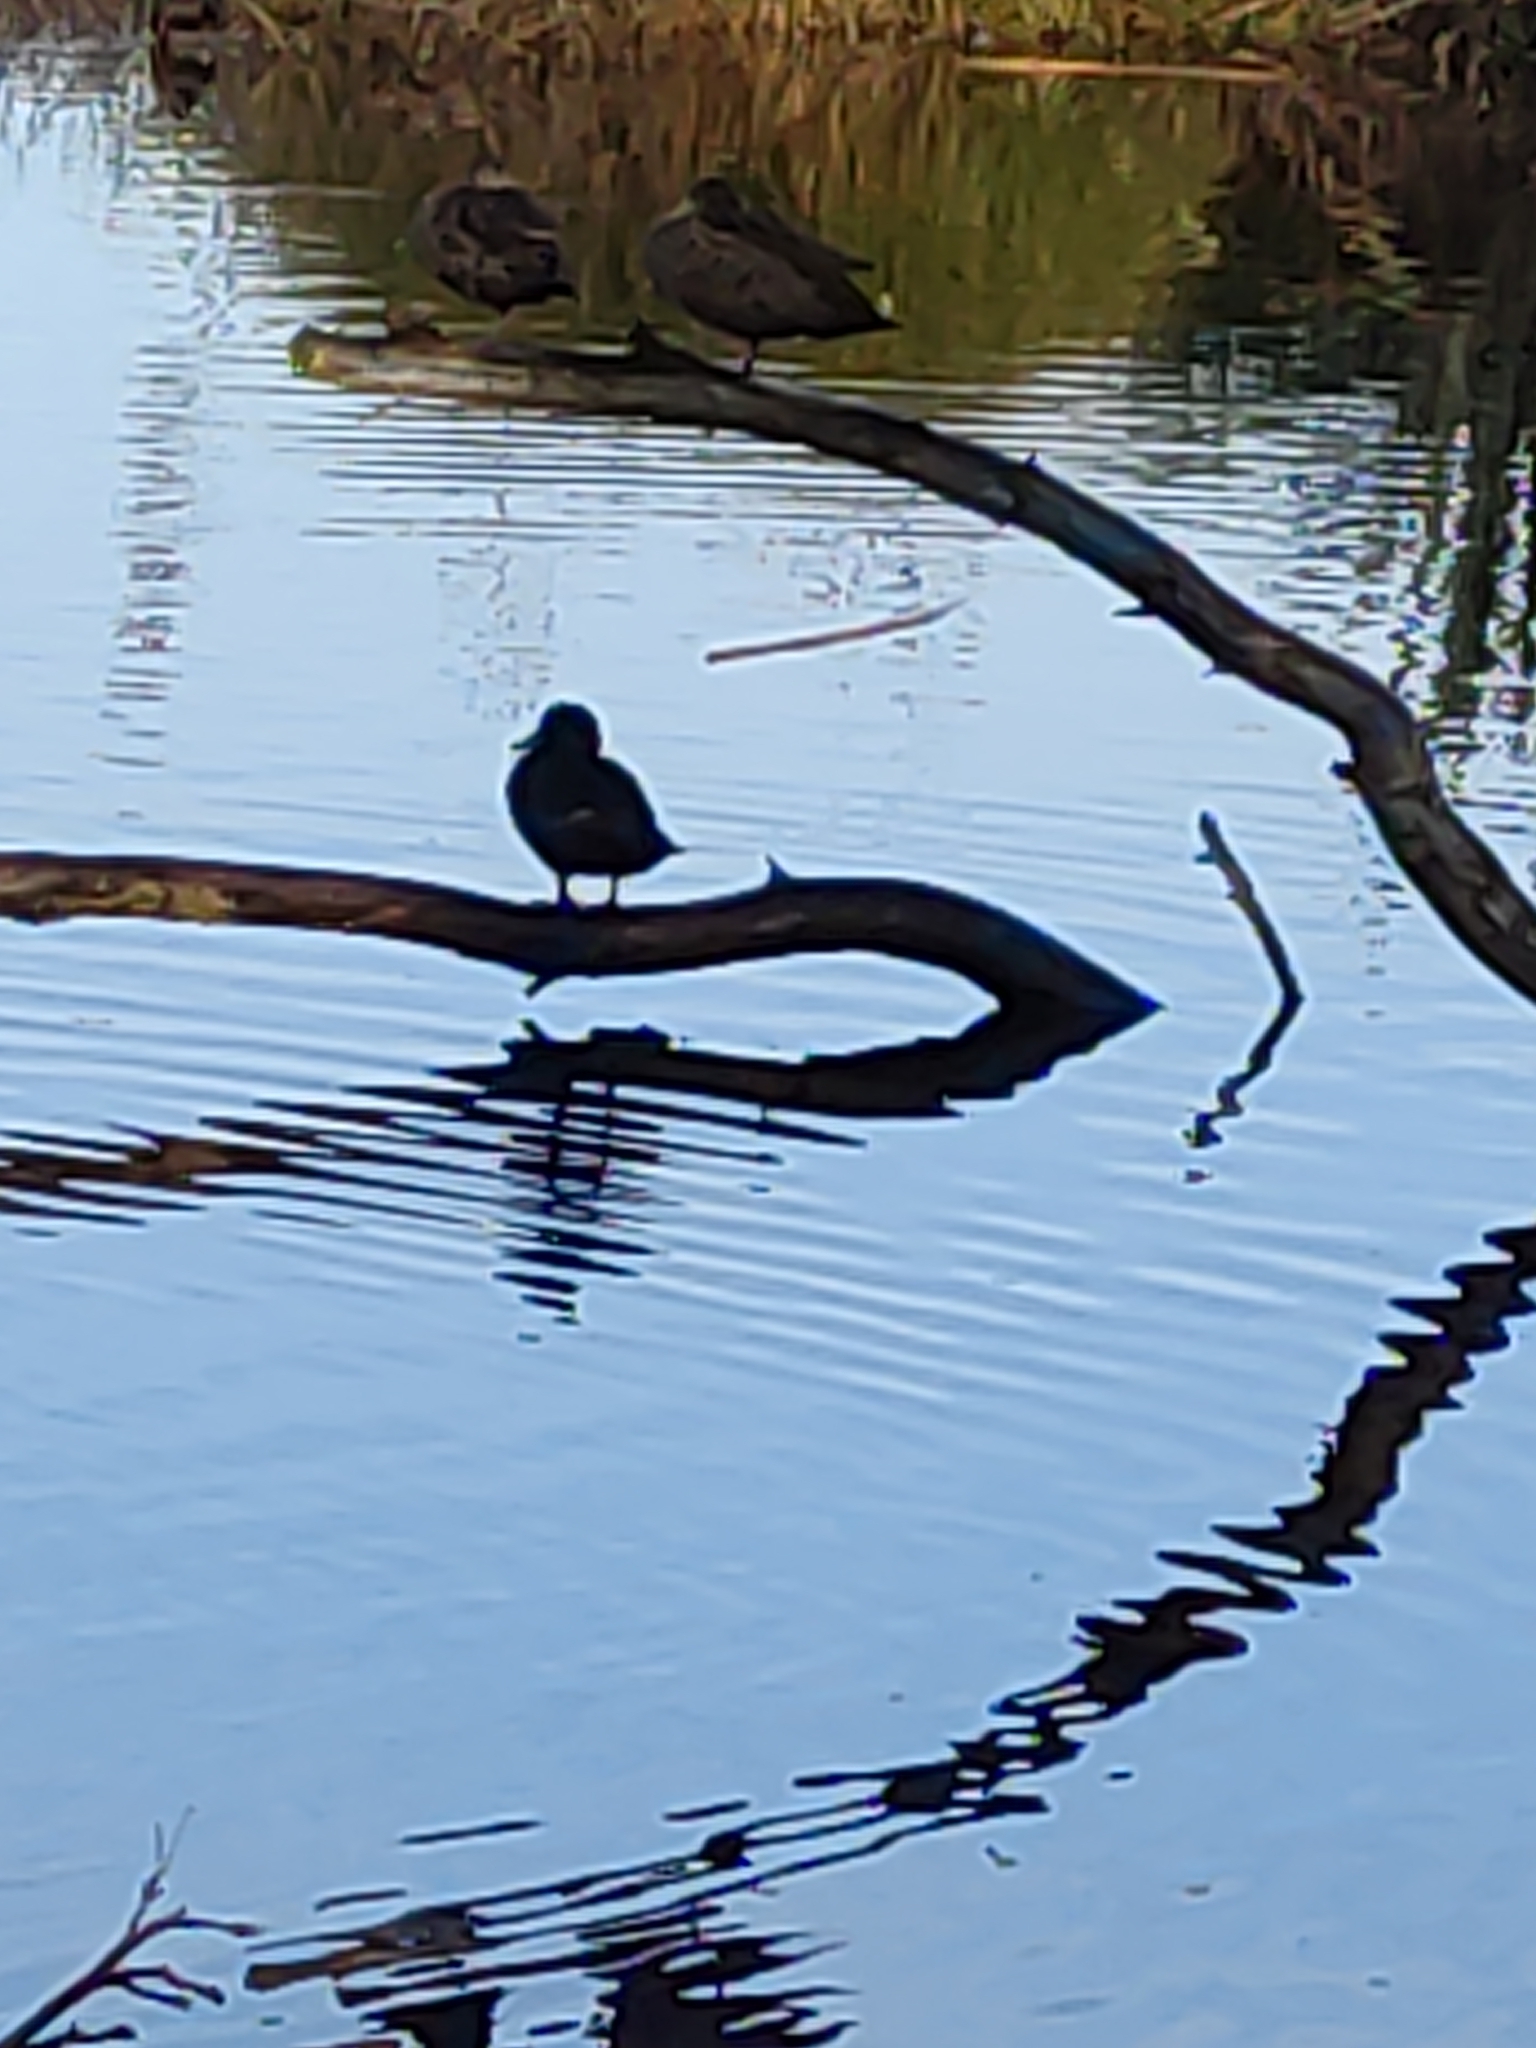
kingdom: Animalia
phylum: Chordata
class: Aves
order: Anseriformes
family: Anatidae
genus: Anas
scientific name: Anas gracilis
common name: Grey teal
